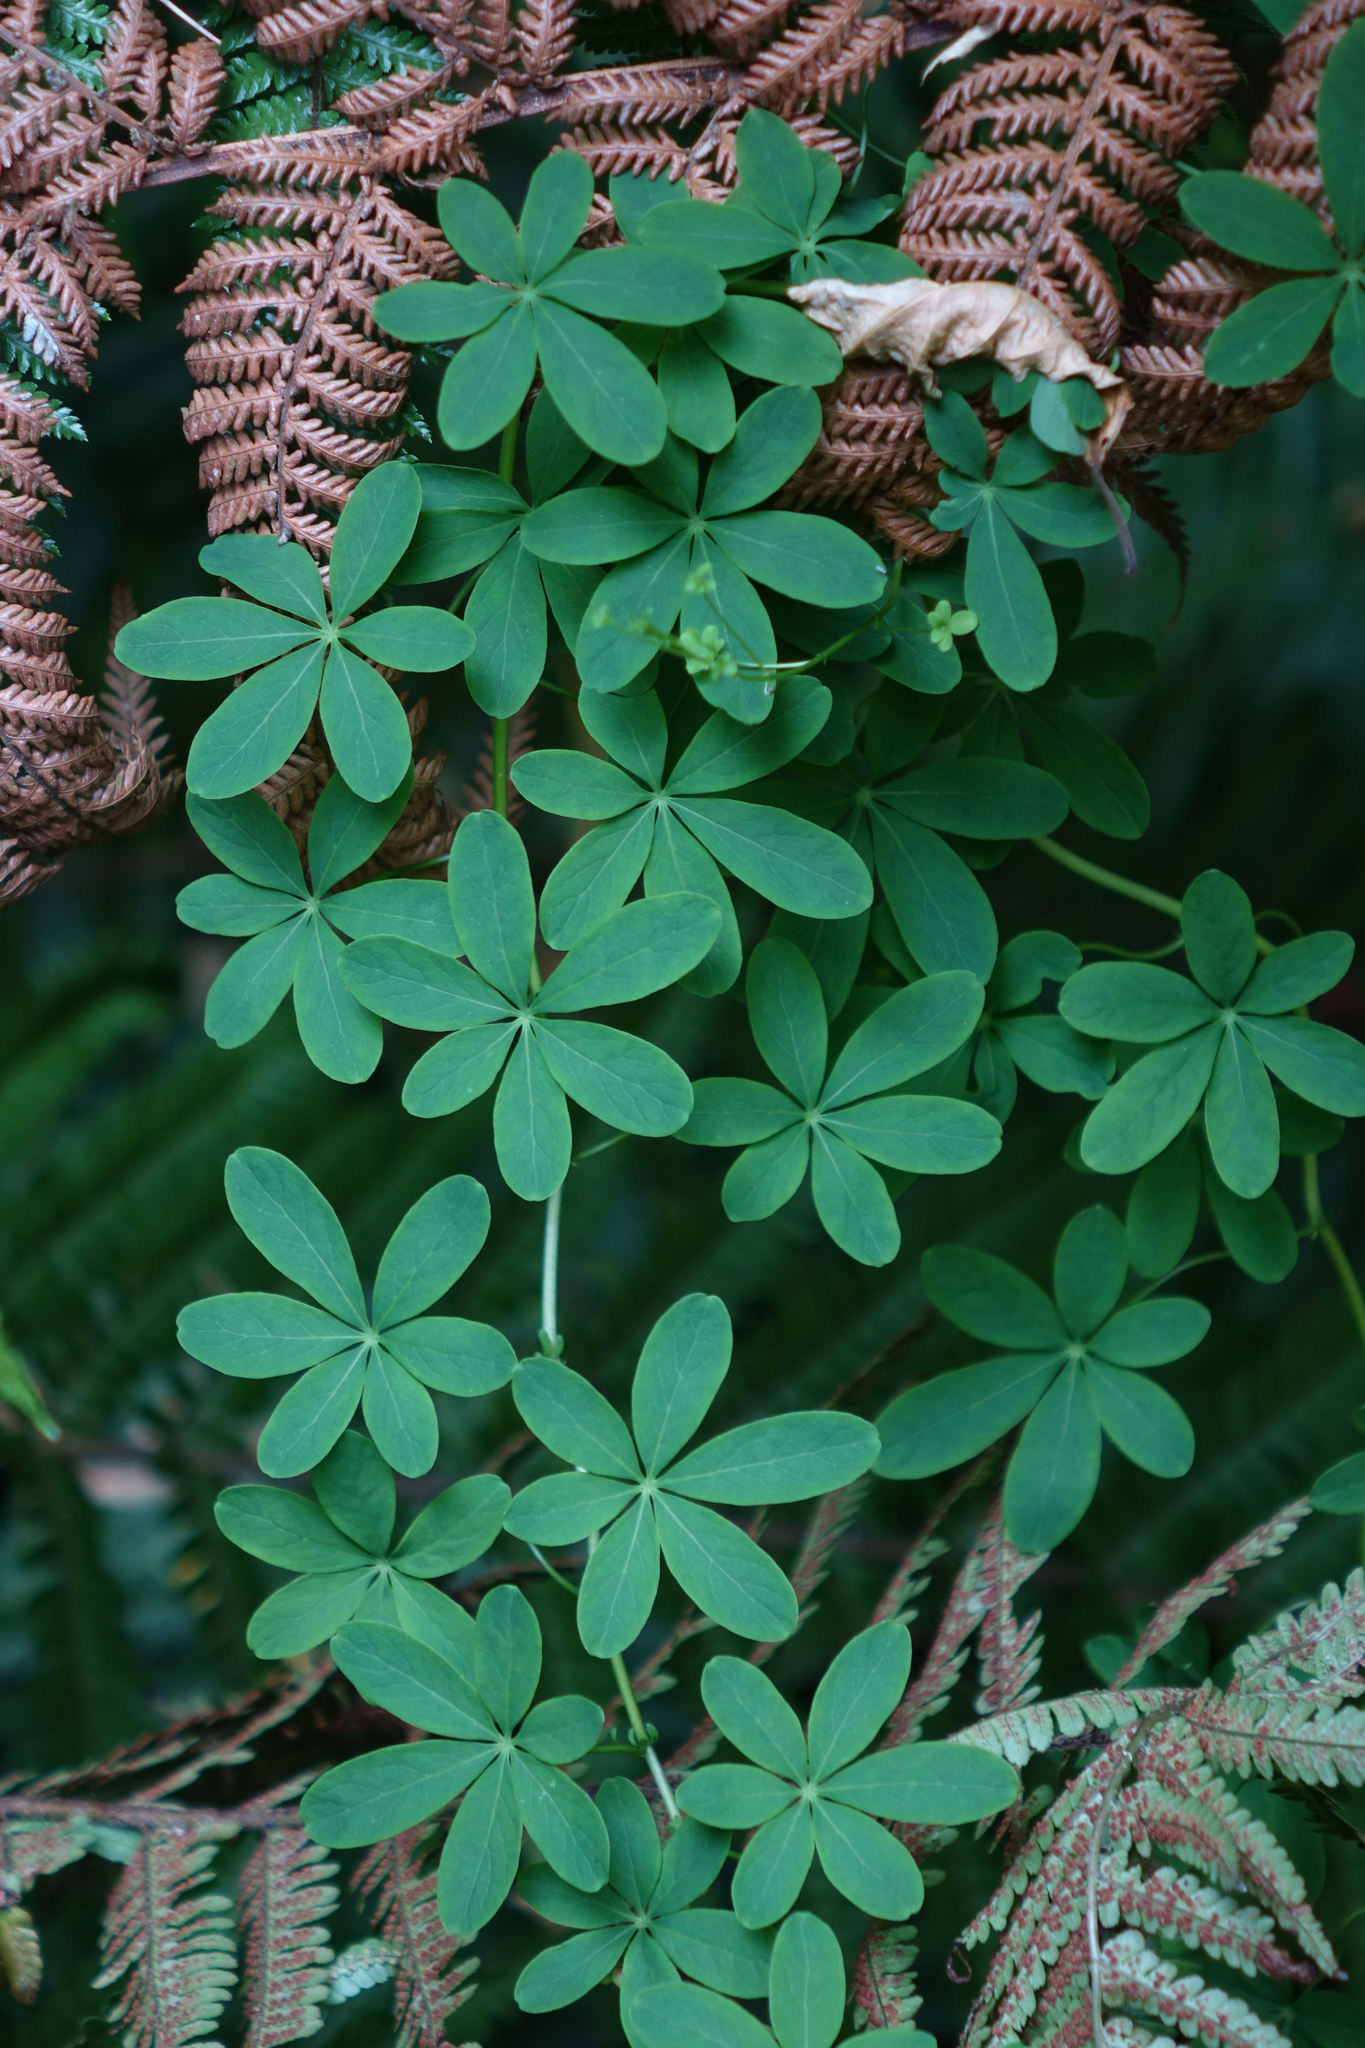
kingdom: Plantae
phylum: Tracheophyta
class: Magnoliopsida
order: Brassicales
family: Tropaeolaceae
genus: Tropaeolum
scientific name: Tropaeolum speciosum
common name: Flame nasturtium
